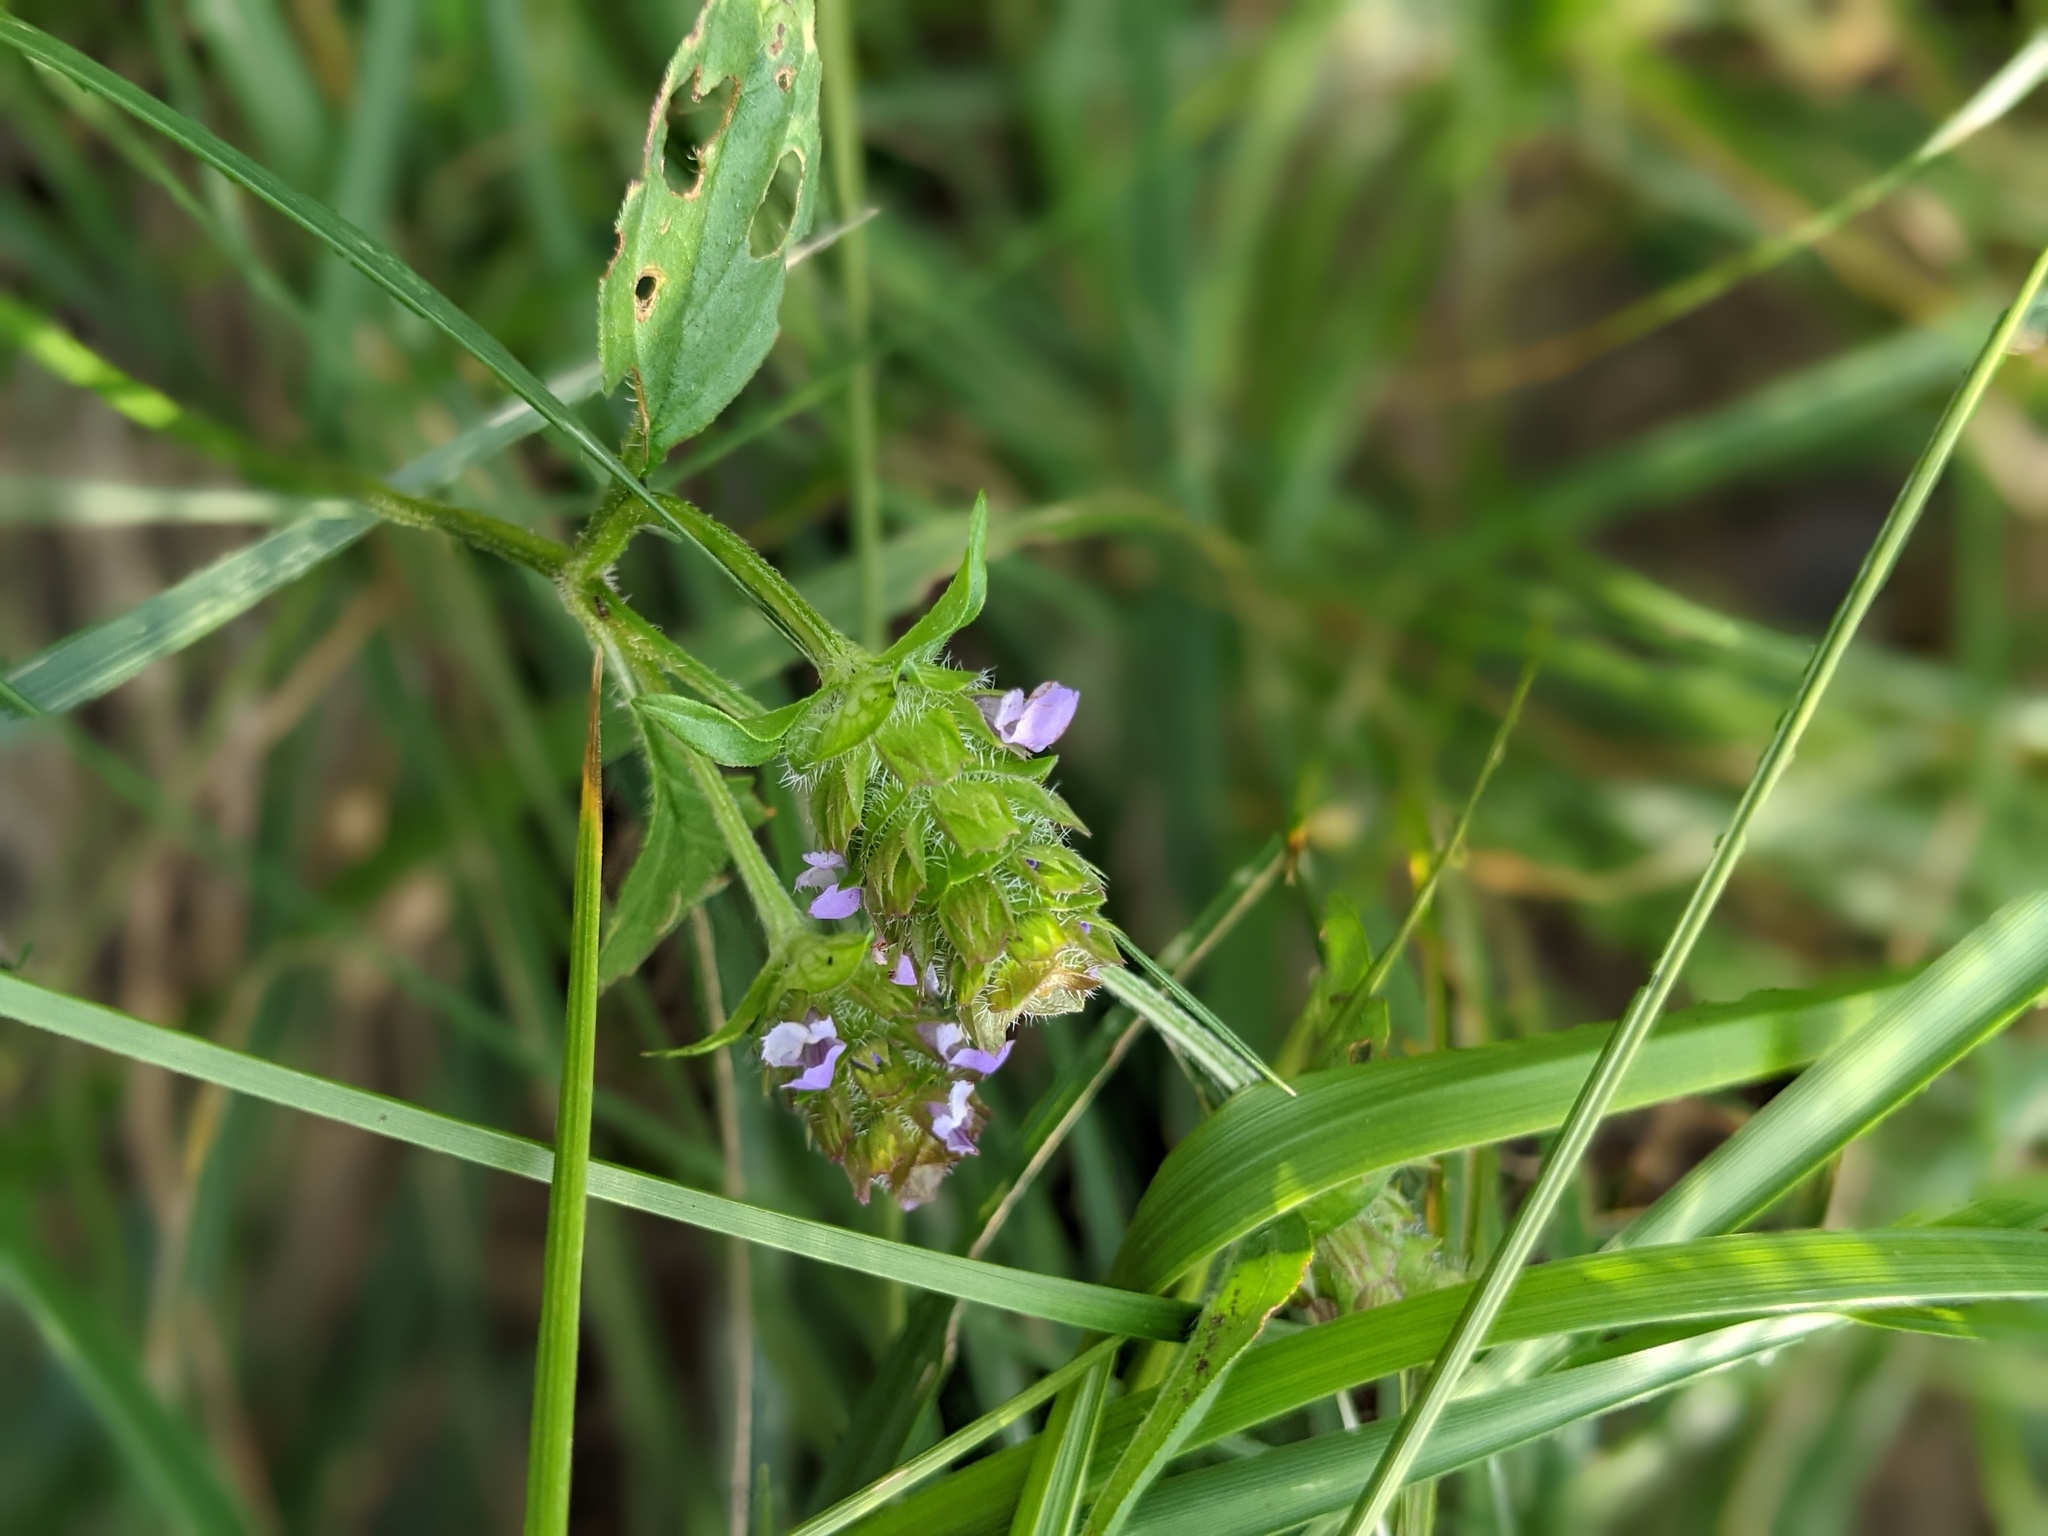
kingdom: Plantae
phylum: Tracheophyta
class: Magnoliopsida
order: Lamiales
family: Lamiaceae
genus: Prunella
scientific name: Prunella vulgaris
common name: Heal-all
